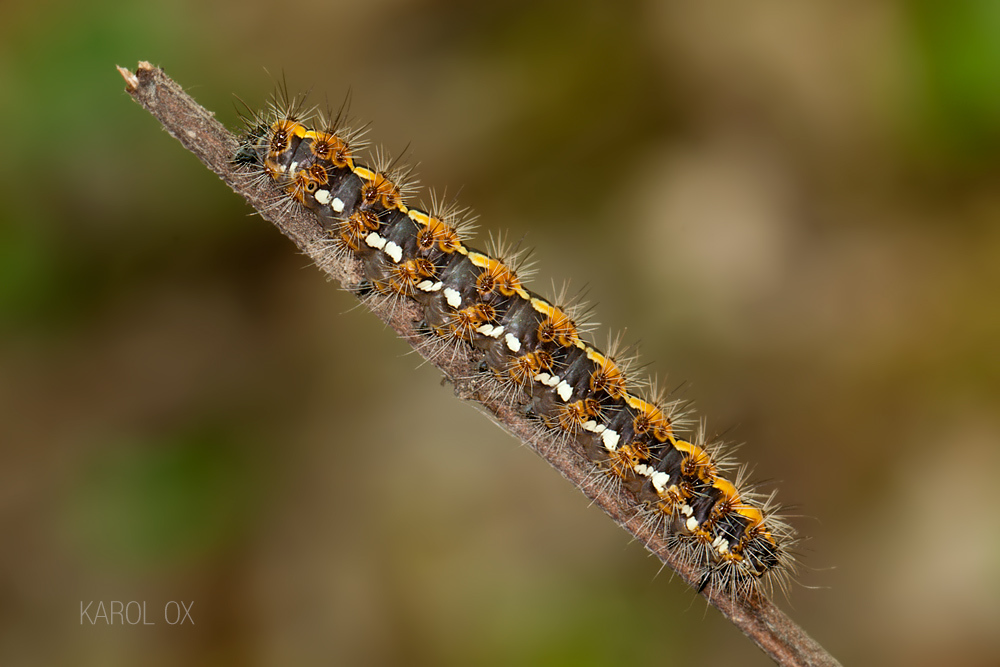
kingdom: Animalia
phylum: Arthropoda
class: Insecta
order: Lepidoptera
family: Erebidae
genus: Euplagia
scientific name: Euplagia quadripunctaria
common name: Jersey tiger
